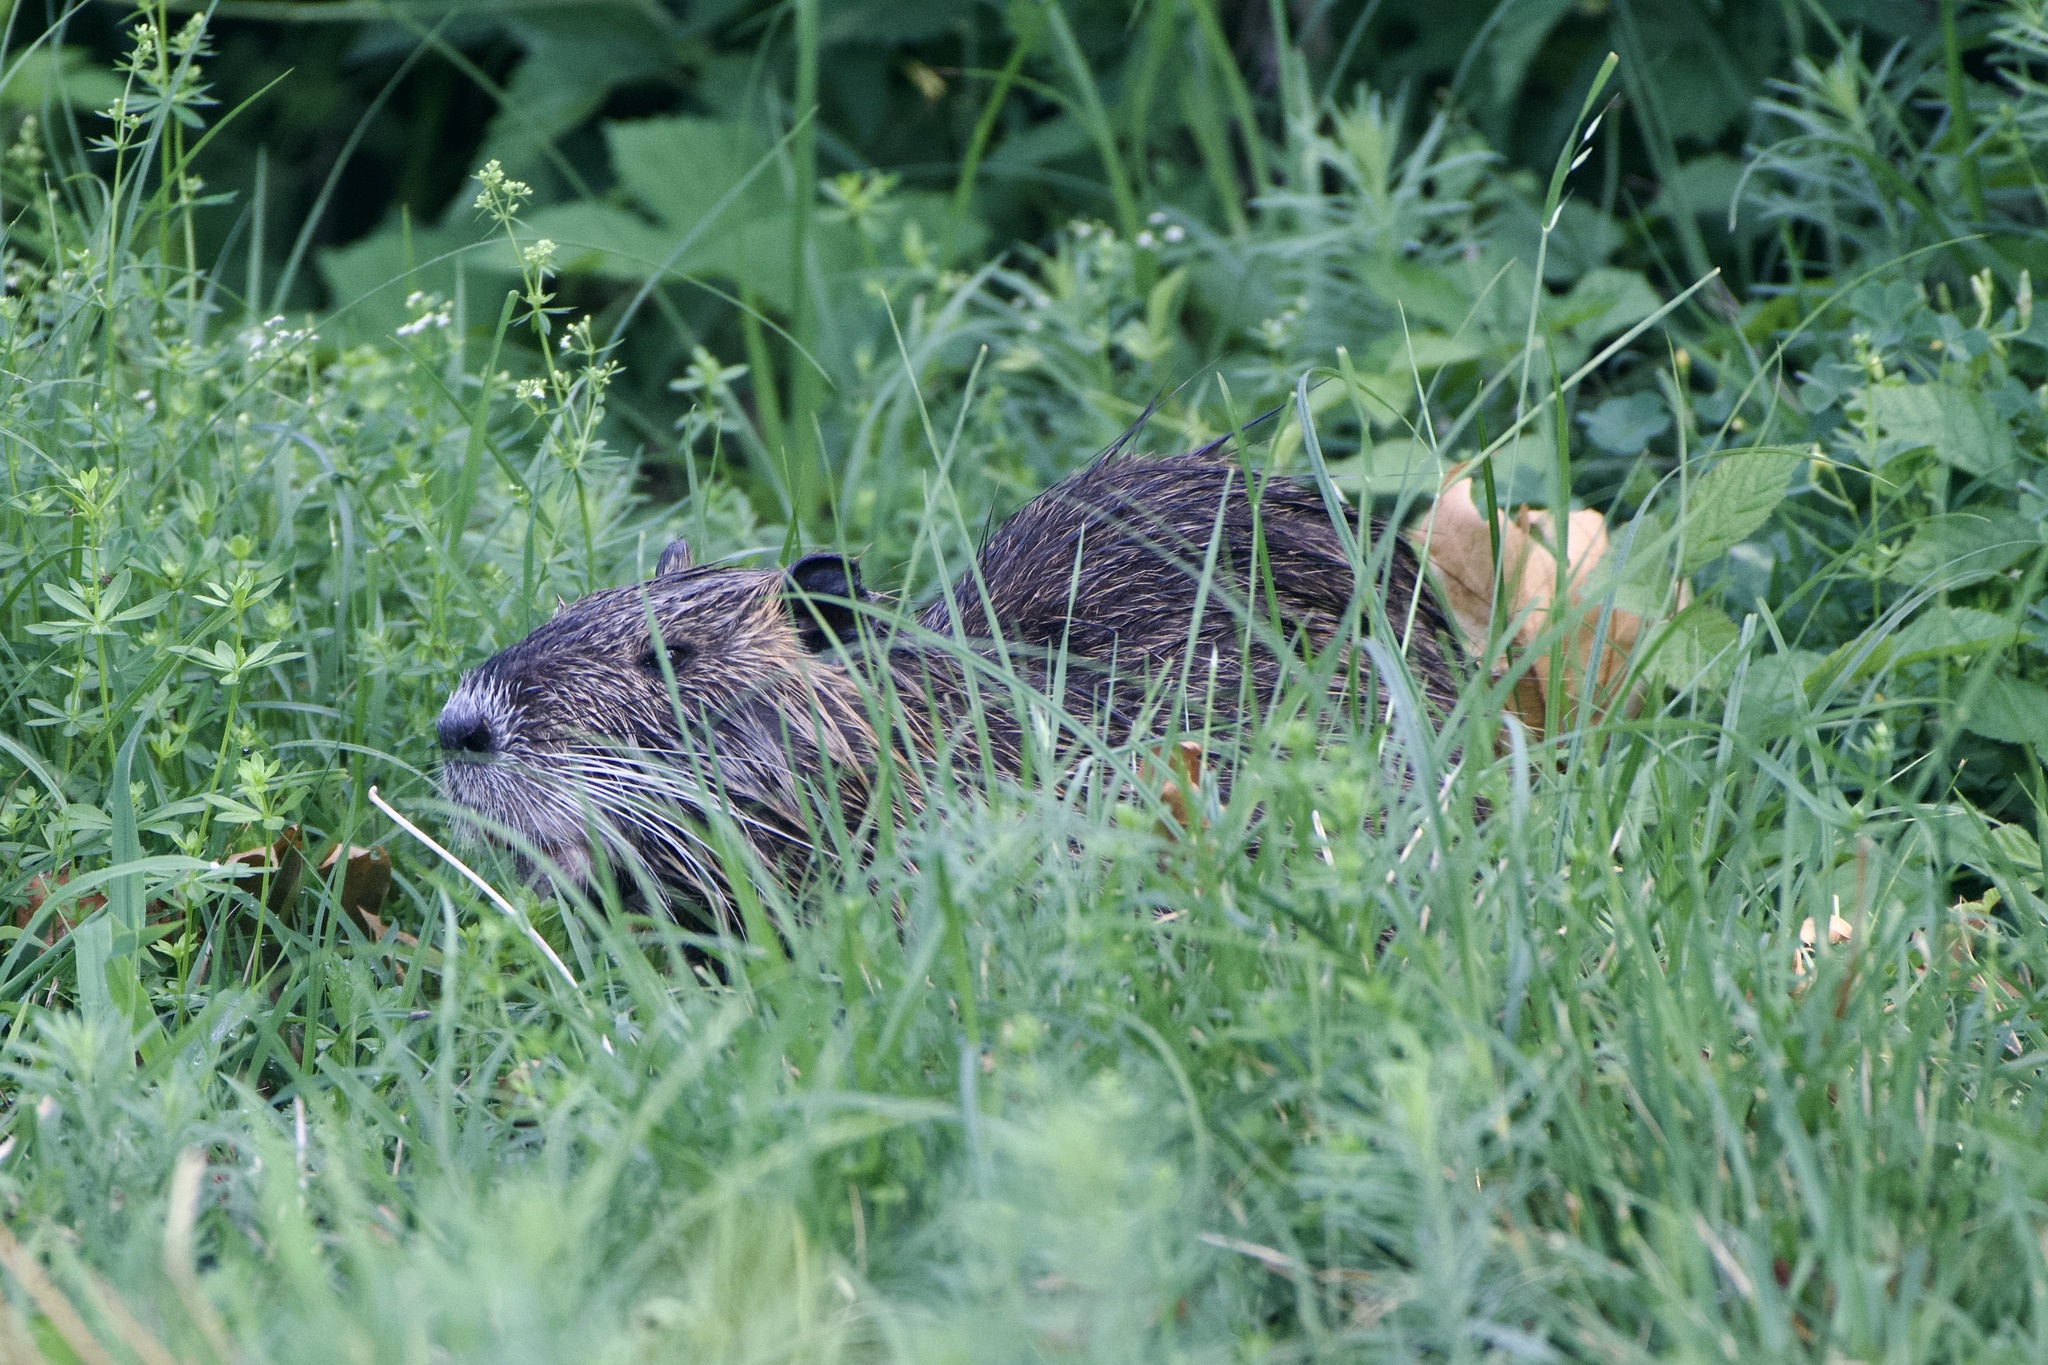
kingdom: Animalia
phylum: Chordata
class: Mammalia
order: Rodentia
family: Myocastoridae
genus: Myocastor
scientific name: Myocastor coypus
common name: Coypu
